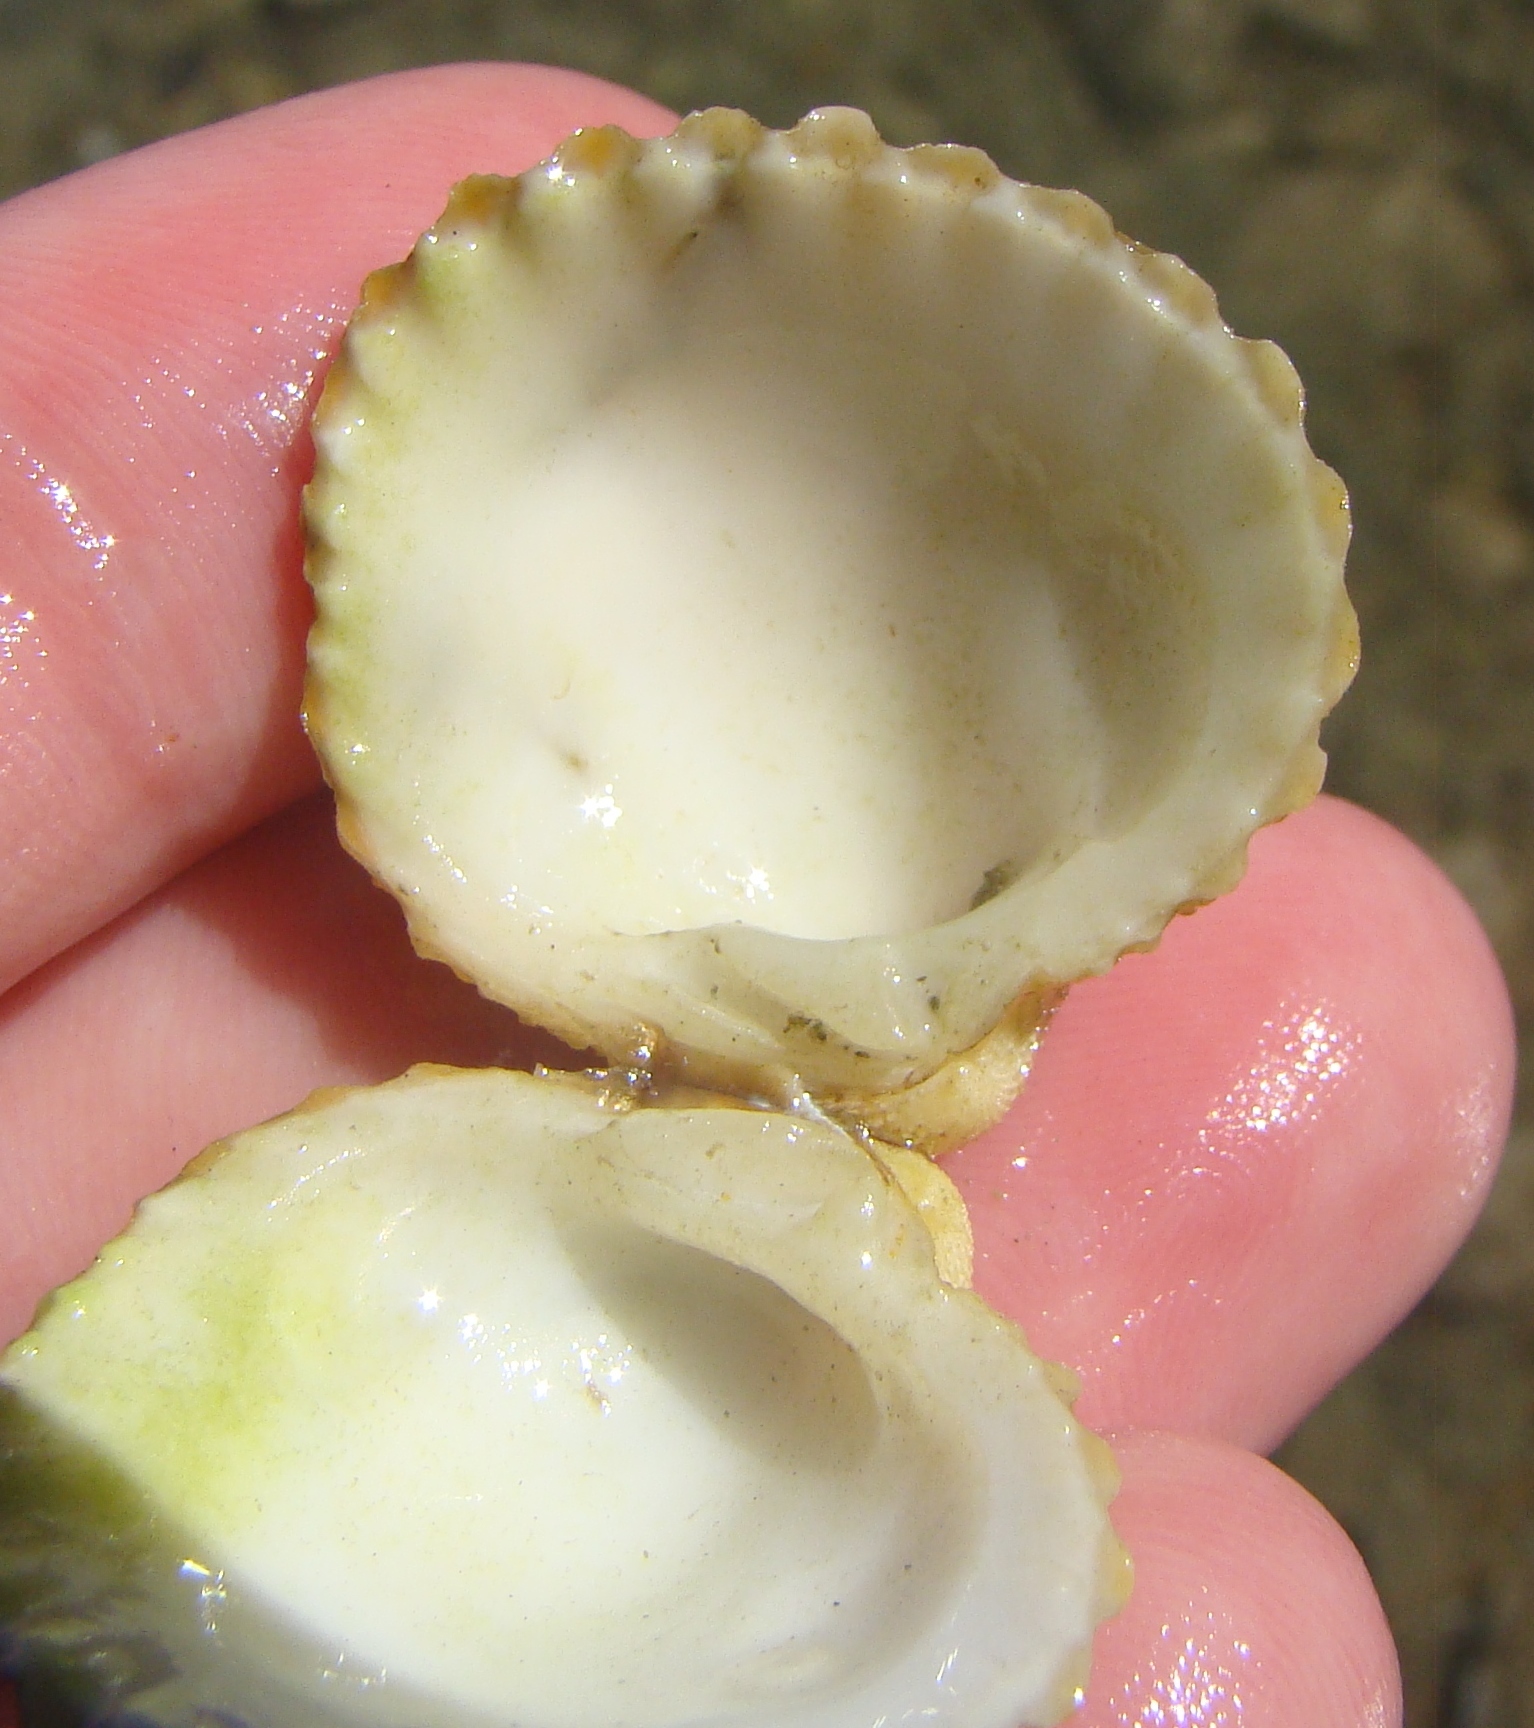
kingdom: Animalia
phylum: Mollusca
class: Bivalvia
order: Carditida
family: Carditidae
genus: Purpurocardia
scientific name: Purpurocardia purpurata
